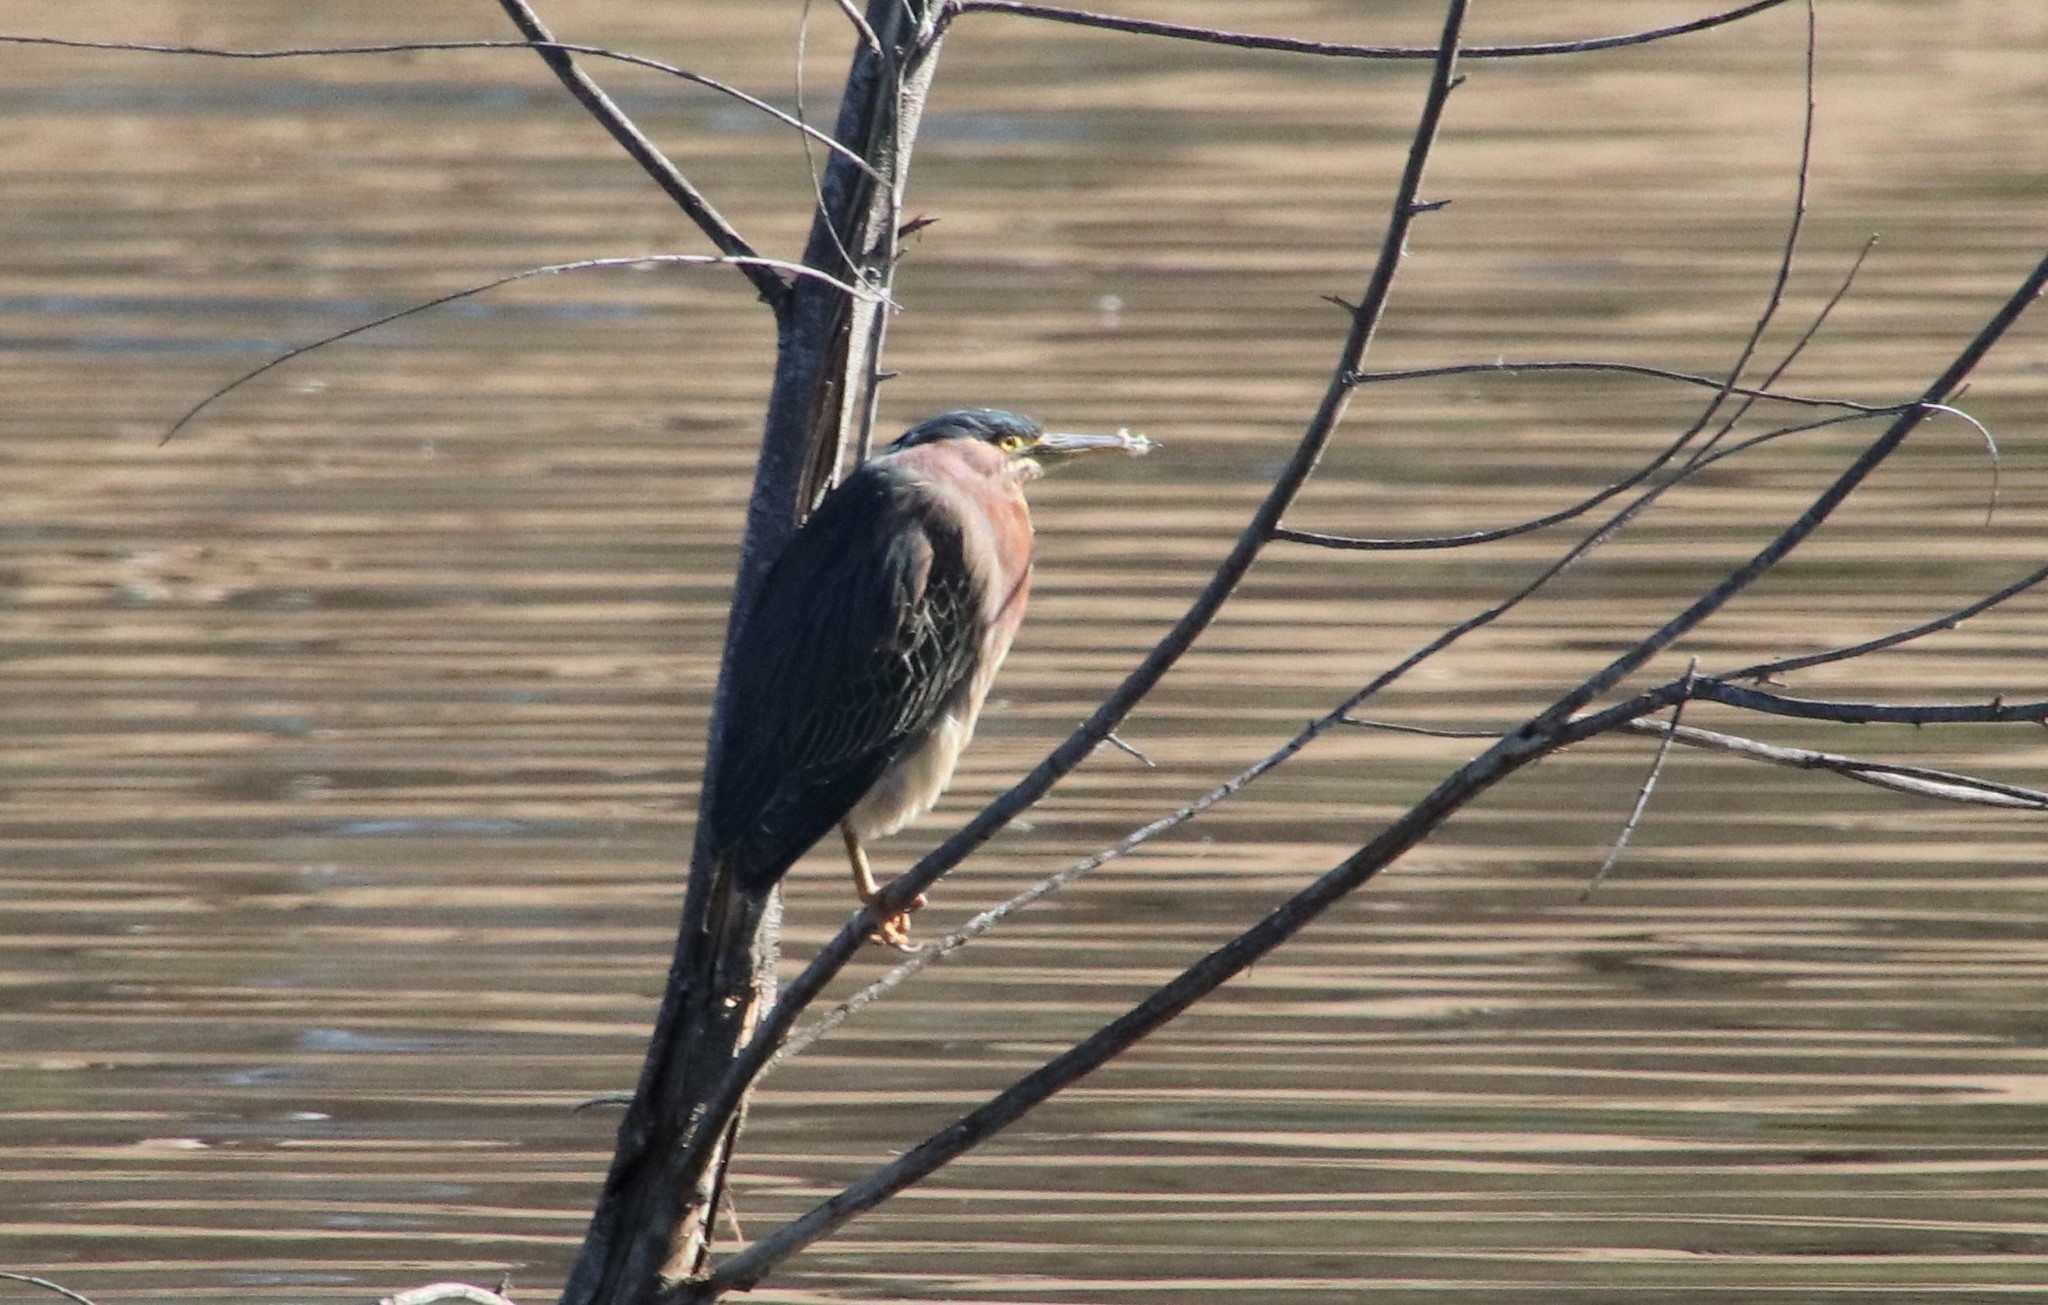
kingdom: Animalia
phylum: Chordata
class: Aves
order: Pelecaniformes
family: Ardeidae
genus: Butorides
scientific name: Butorides virescens
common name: Green heron
